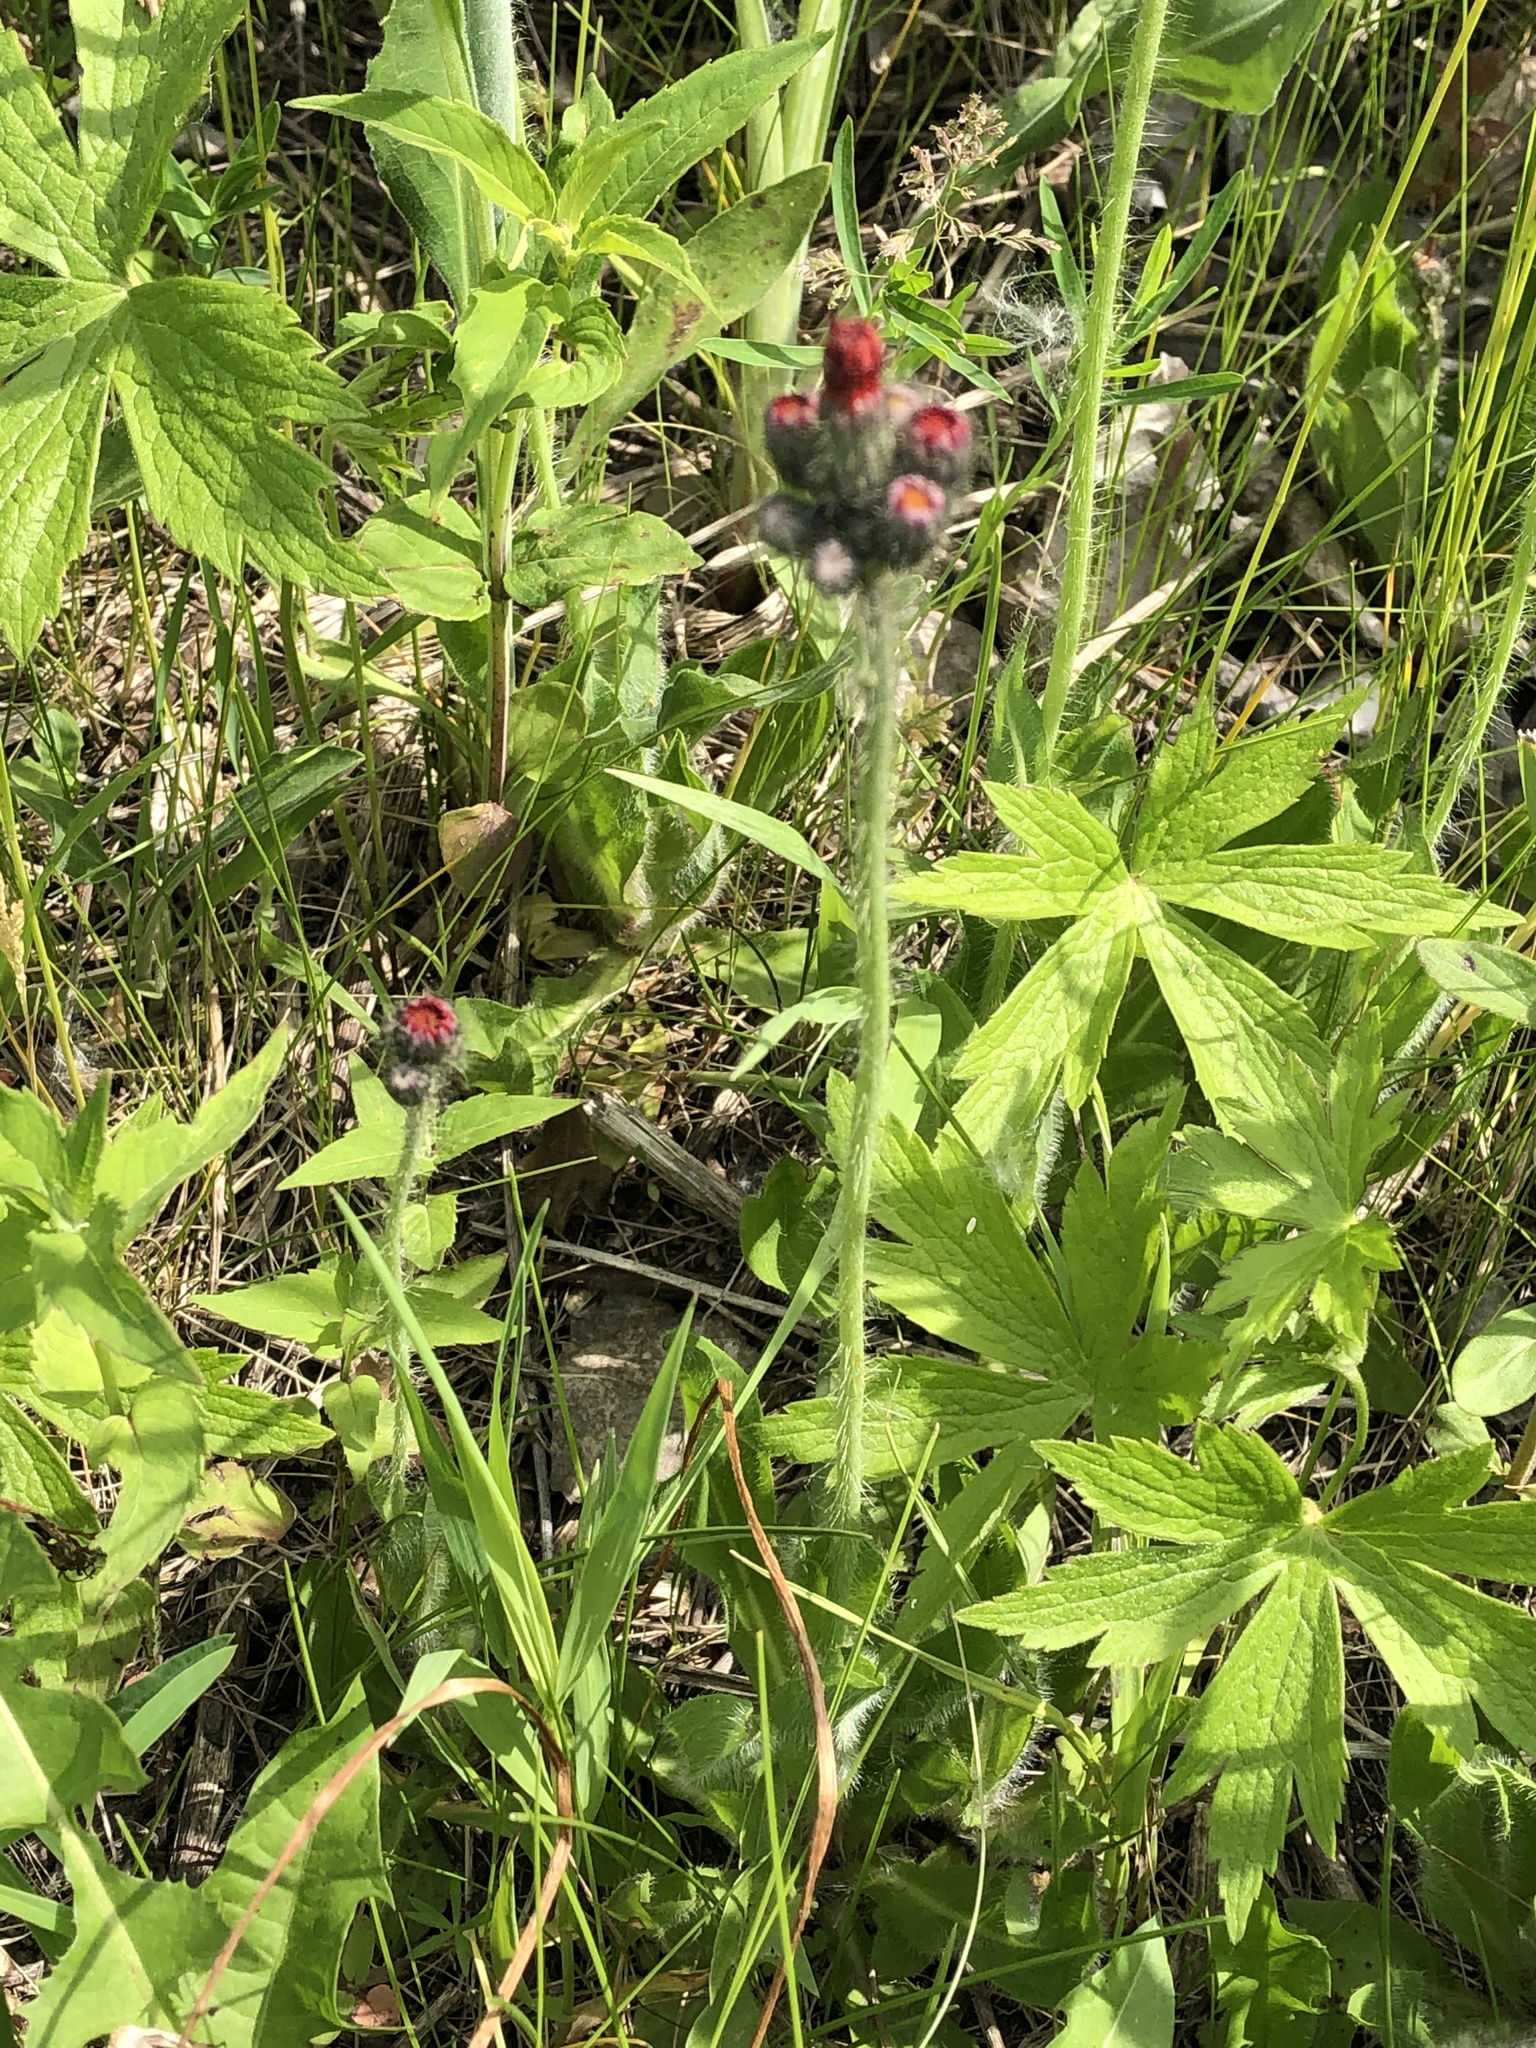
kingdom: Plantae
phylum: Tracheophyta
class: Magnoliopsida
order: Asterales
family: Asteraceae
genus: Pilosella
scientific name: Pilosella aurantiaca
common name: Fox-and-cubs
